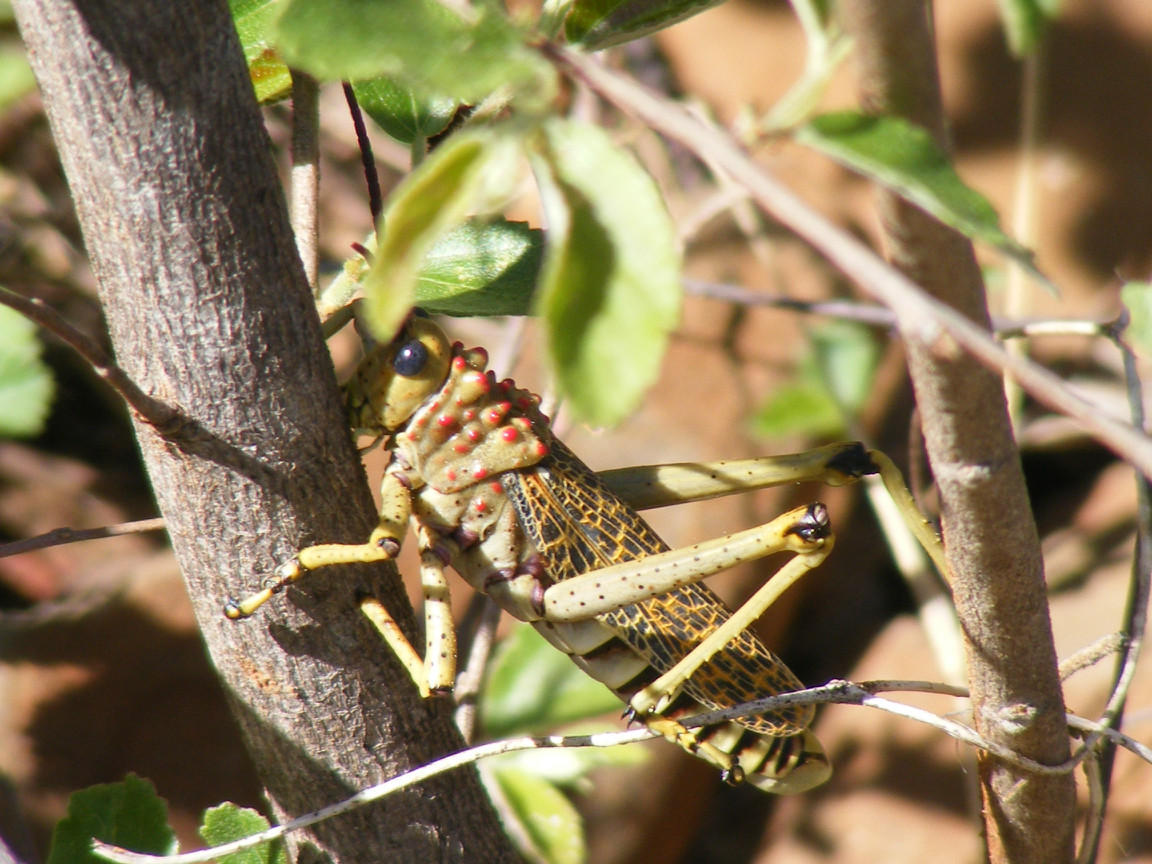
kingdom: Animalia
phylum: Arthropoda
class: Insecta
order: Orthoptera
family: Pyrgomorphidae
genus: Phymateus
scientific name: Phymateus baccatus
